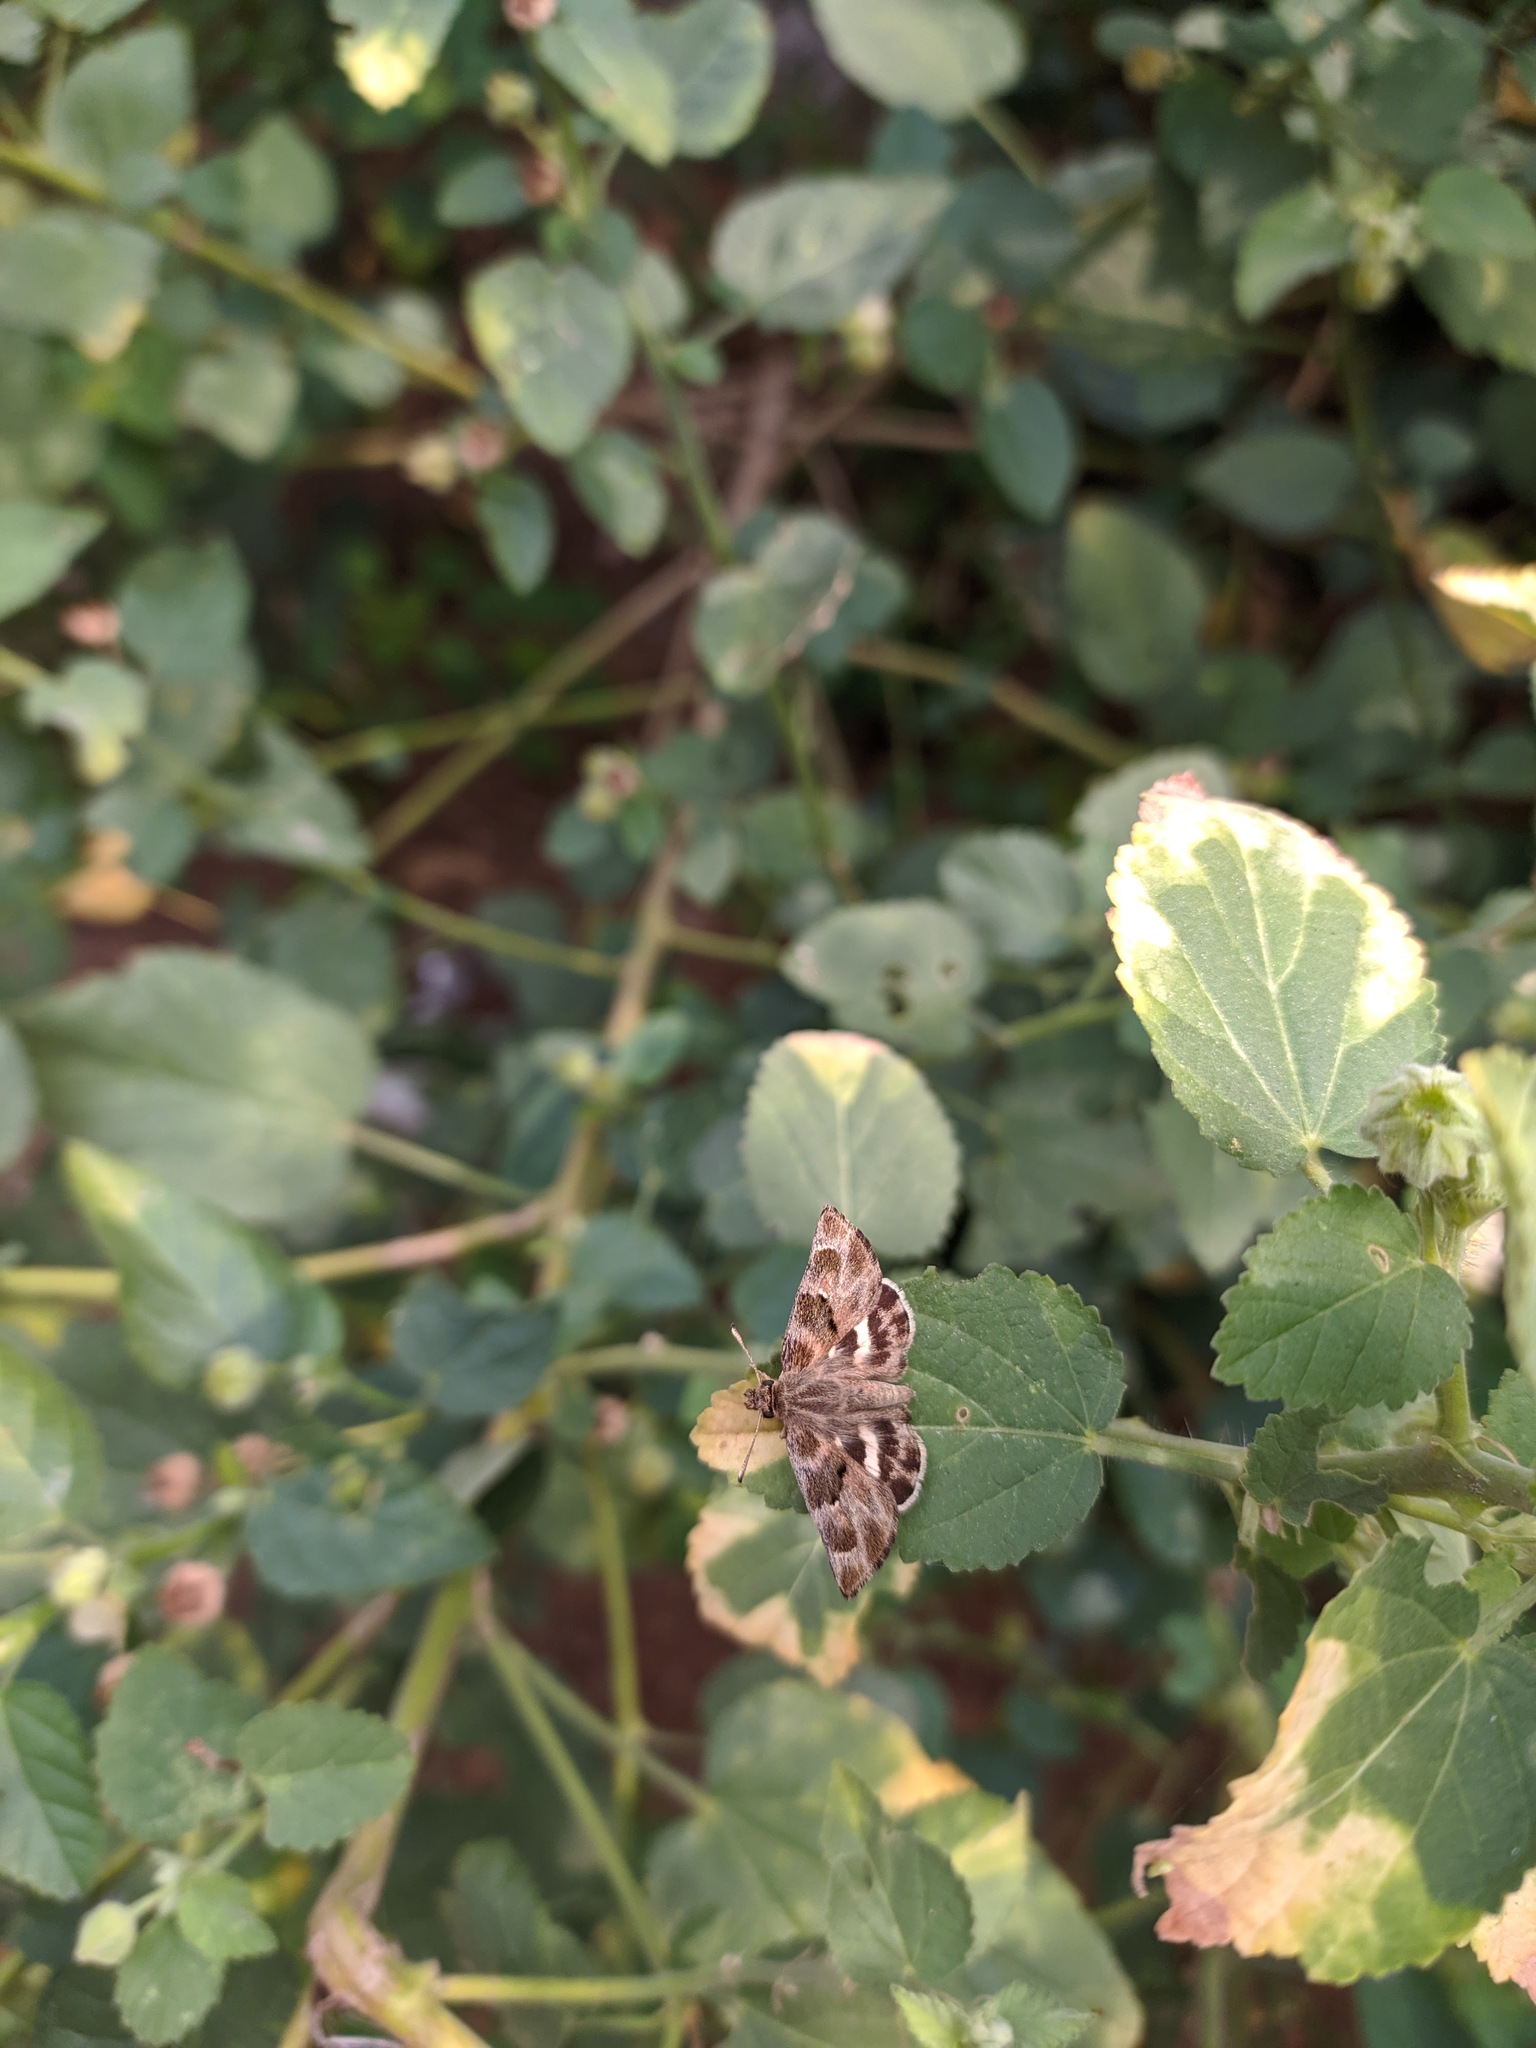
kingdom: Animalia
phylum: Arthropoda
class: Insecta
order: Lepidoptera
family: Hesperiidae
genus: Gomalia
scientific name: Gomalia elma
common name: Green-marbled skipper
